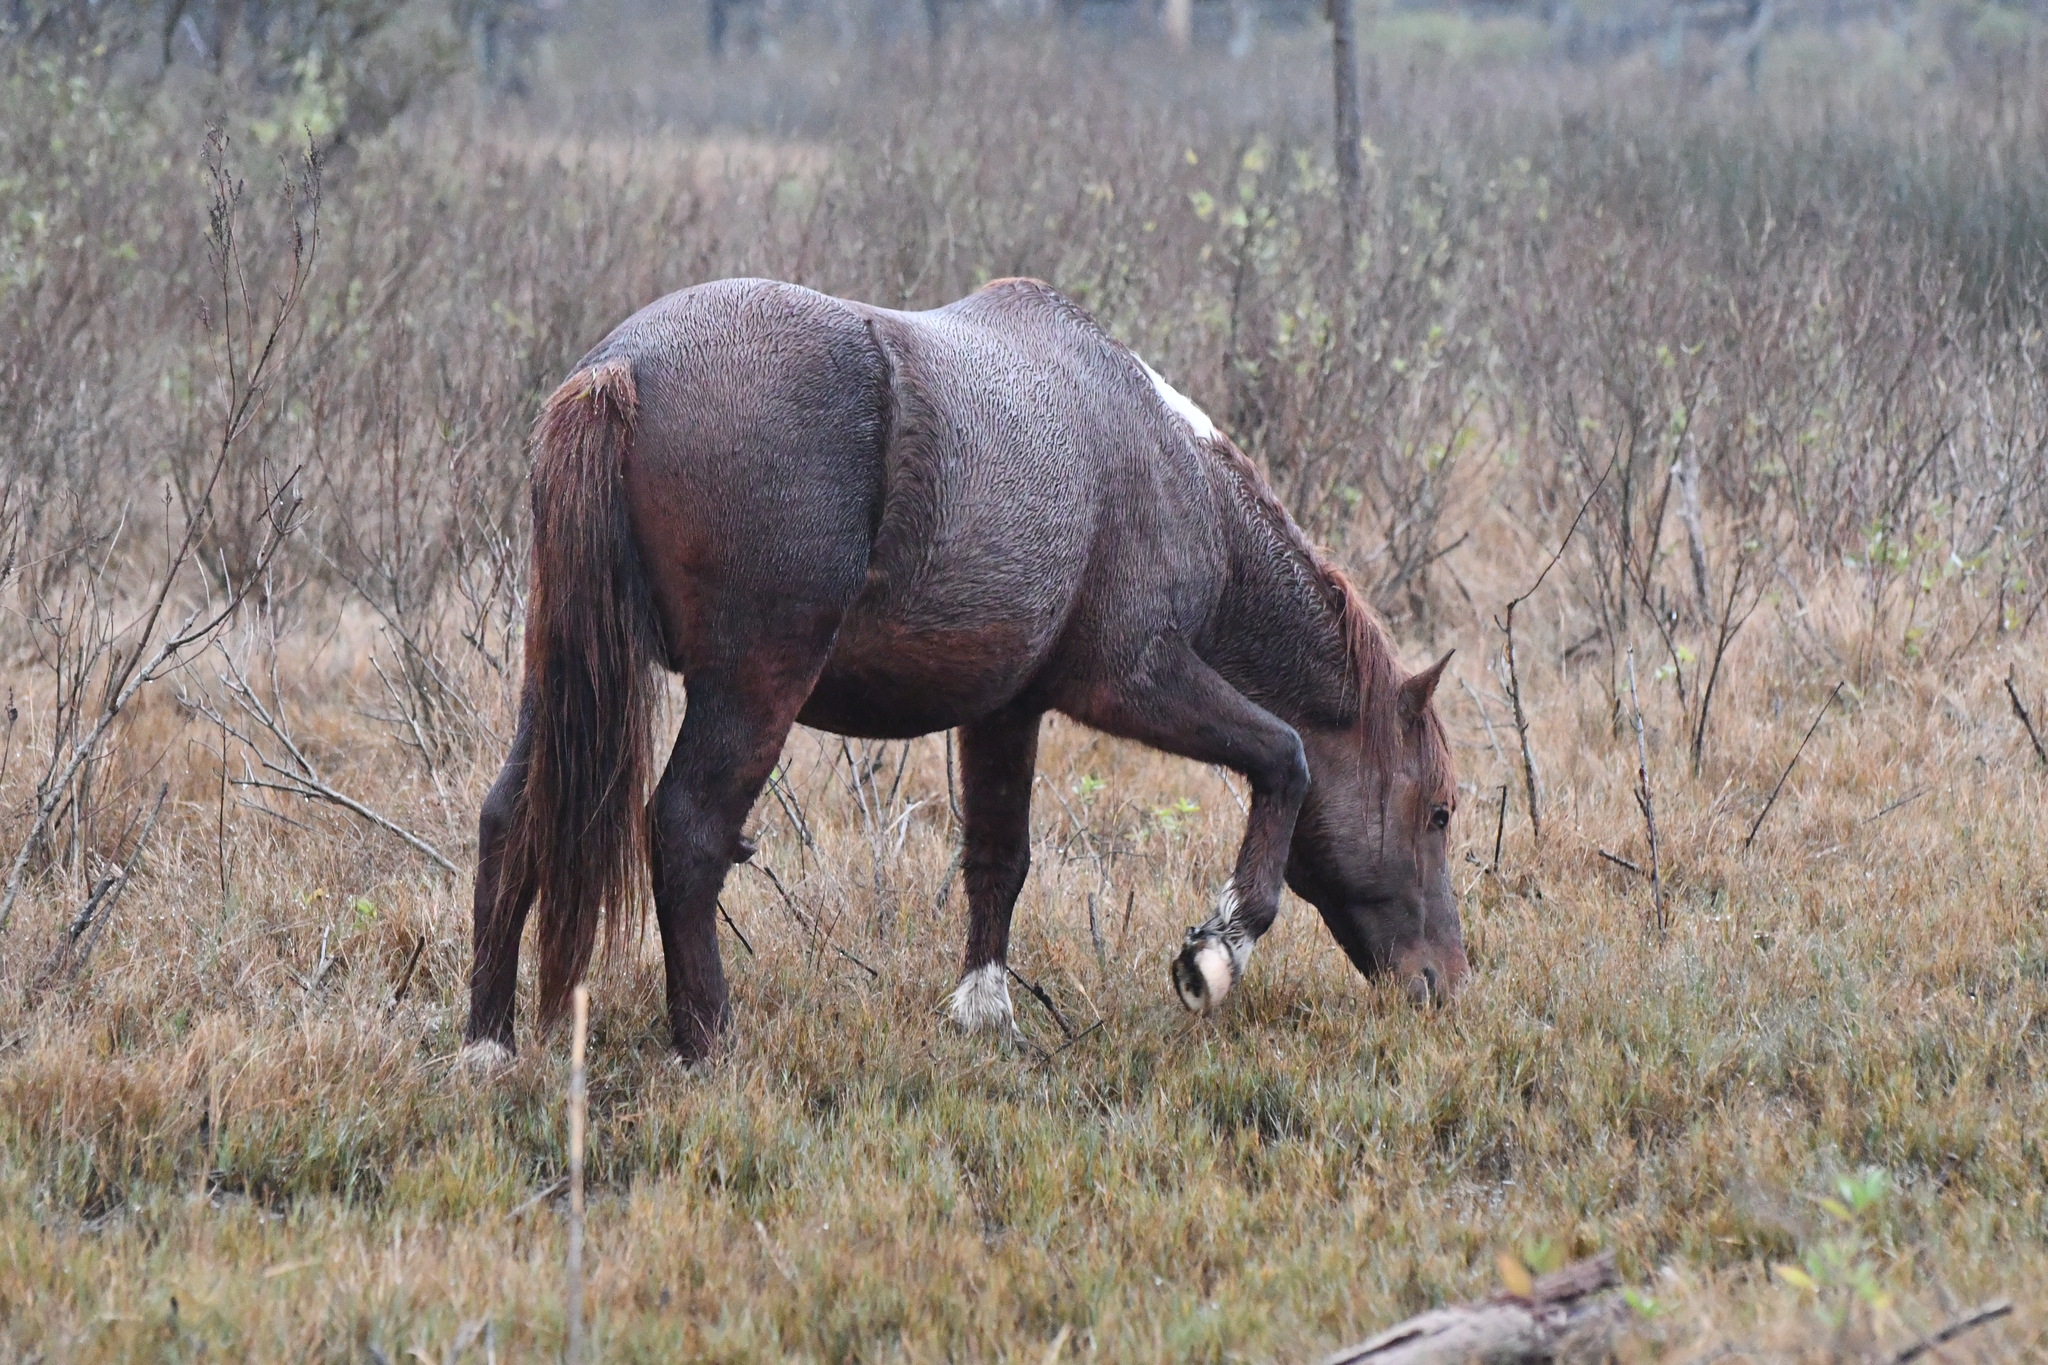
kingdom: Animalia
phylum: Chordata
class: Mammalia
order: Perissodactyla
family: Equidae
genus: Equus
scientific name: Equus caballus
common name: Horse
